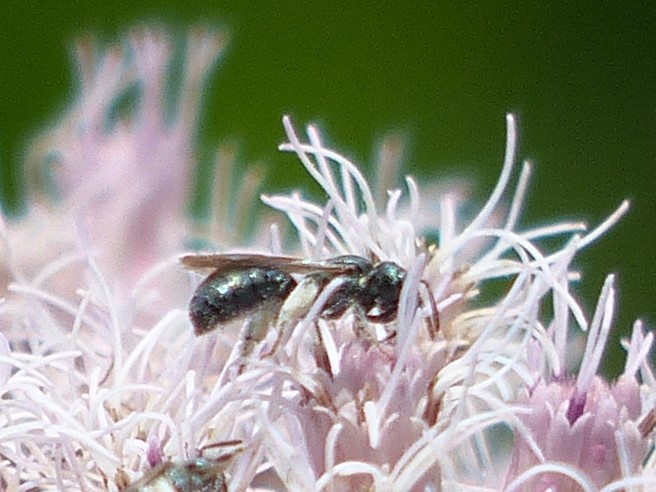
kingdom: Animalia
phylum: Arthropoda
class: Insecta
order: Hymenoptera
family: Apidae
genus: Zadontomerus
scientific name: Zadontomerus
